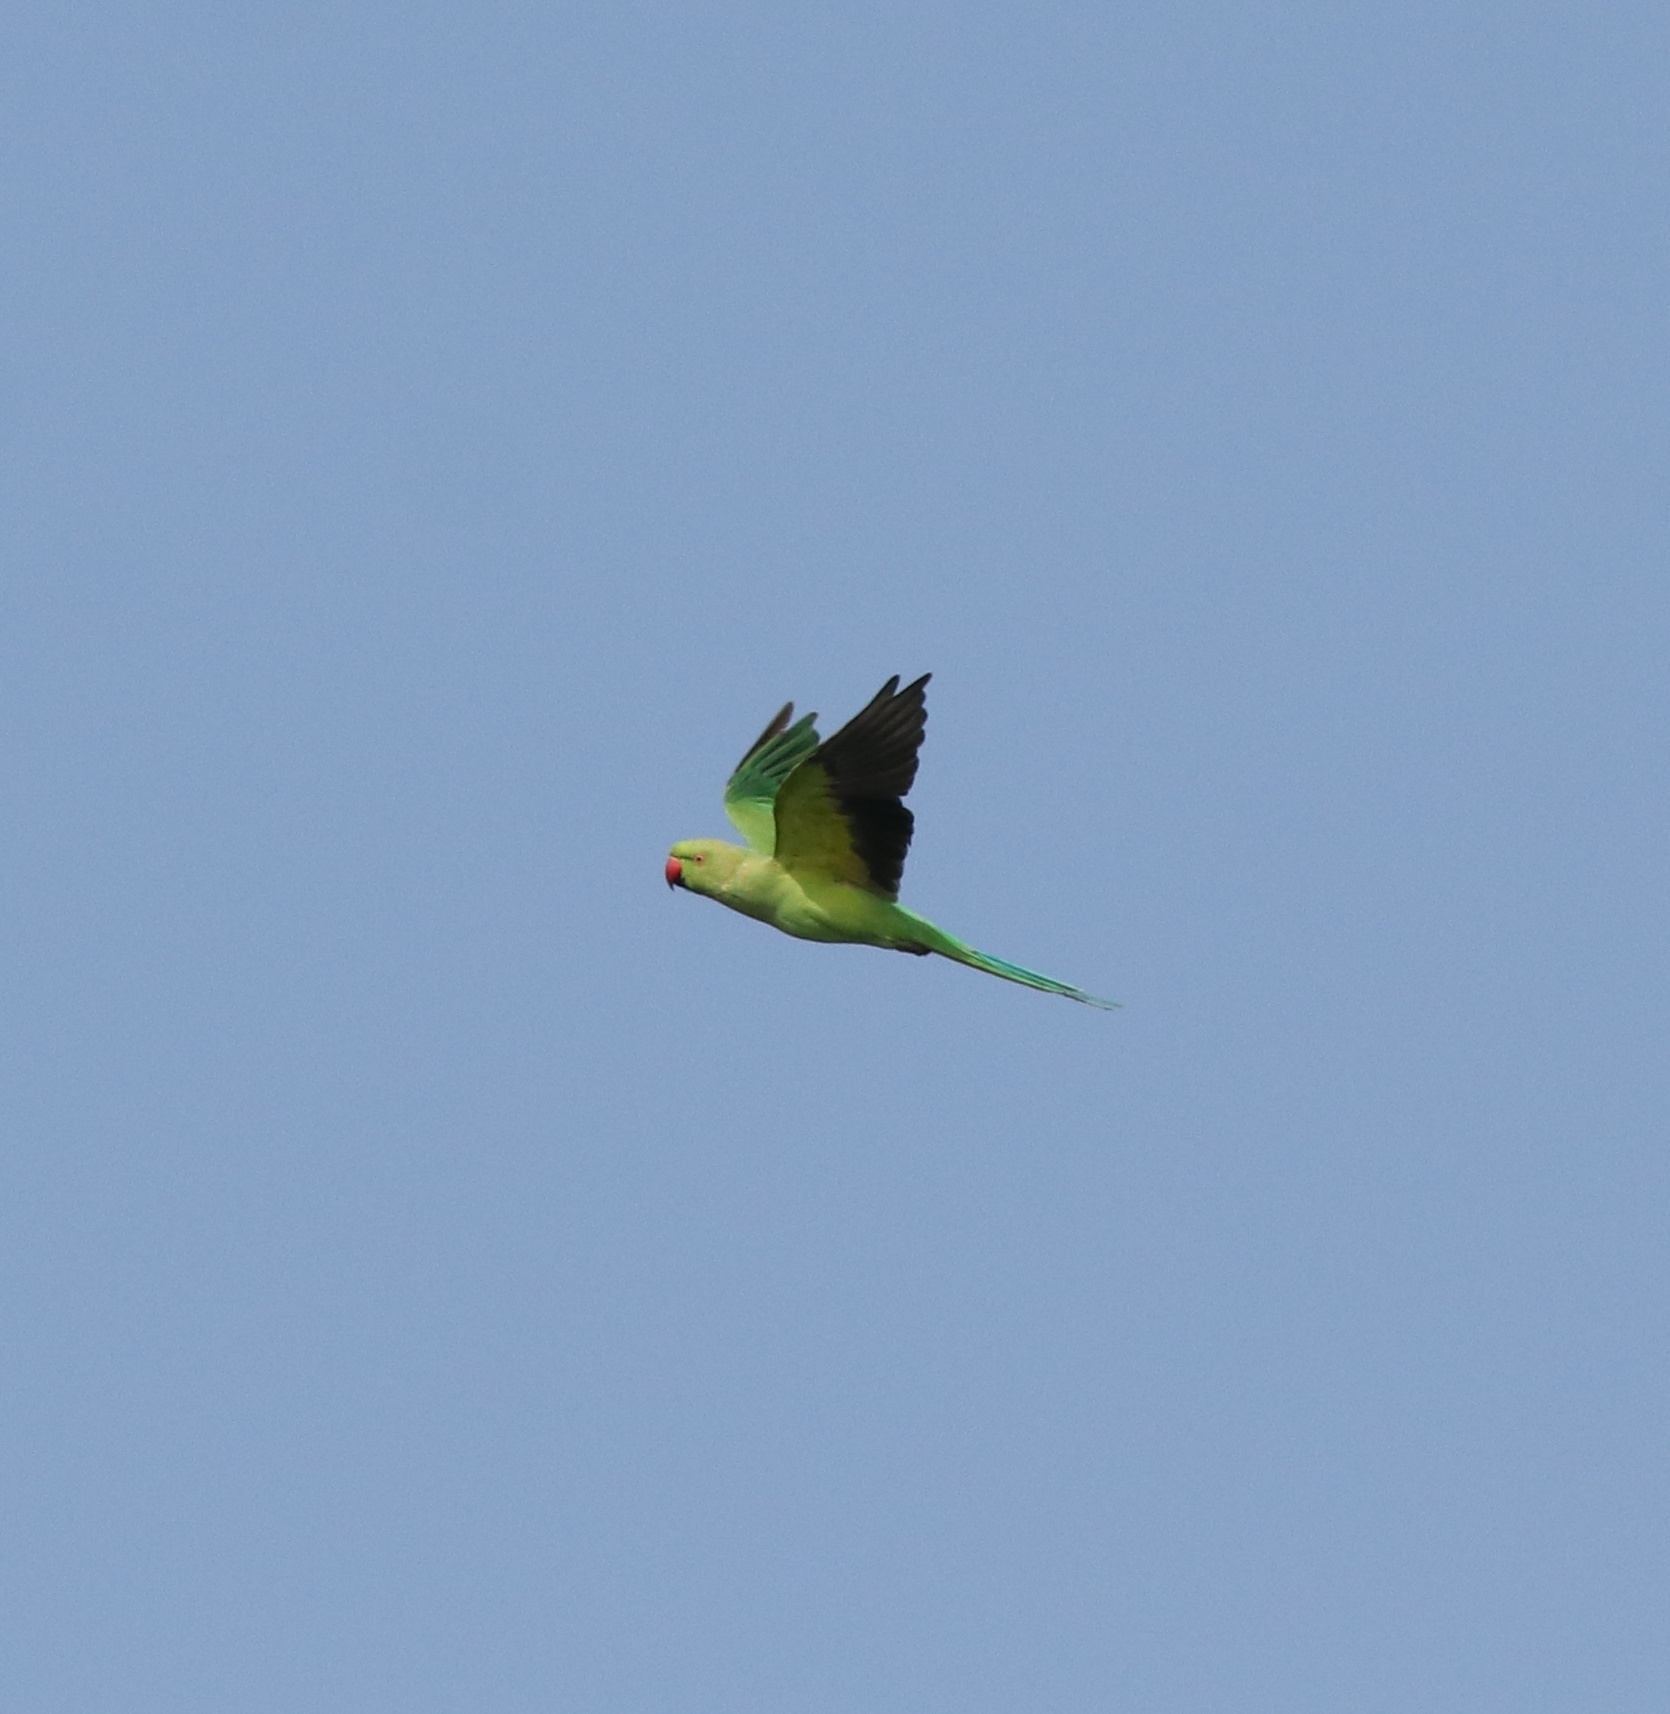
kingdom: Animalia
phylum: Chordata
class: Aves
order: Psittaciformes
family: Psittacidae
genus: Psittacula
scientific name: Psittacula krameri
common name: Rose-ringed parakeet
